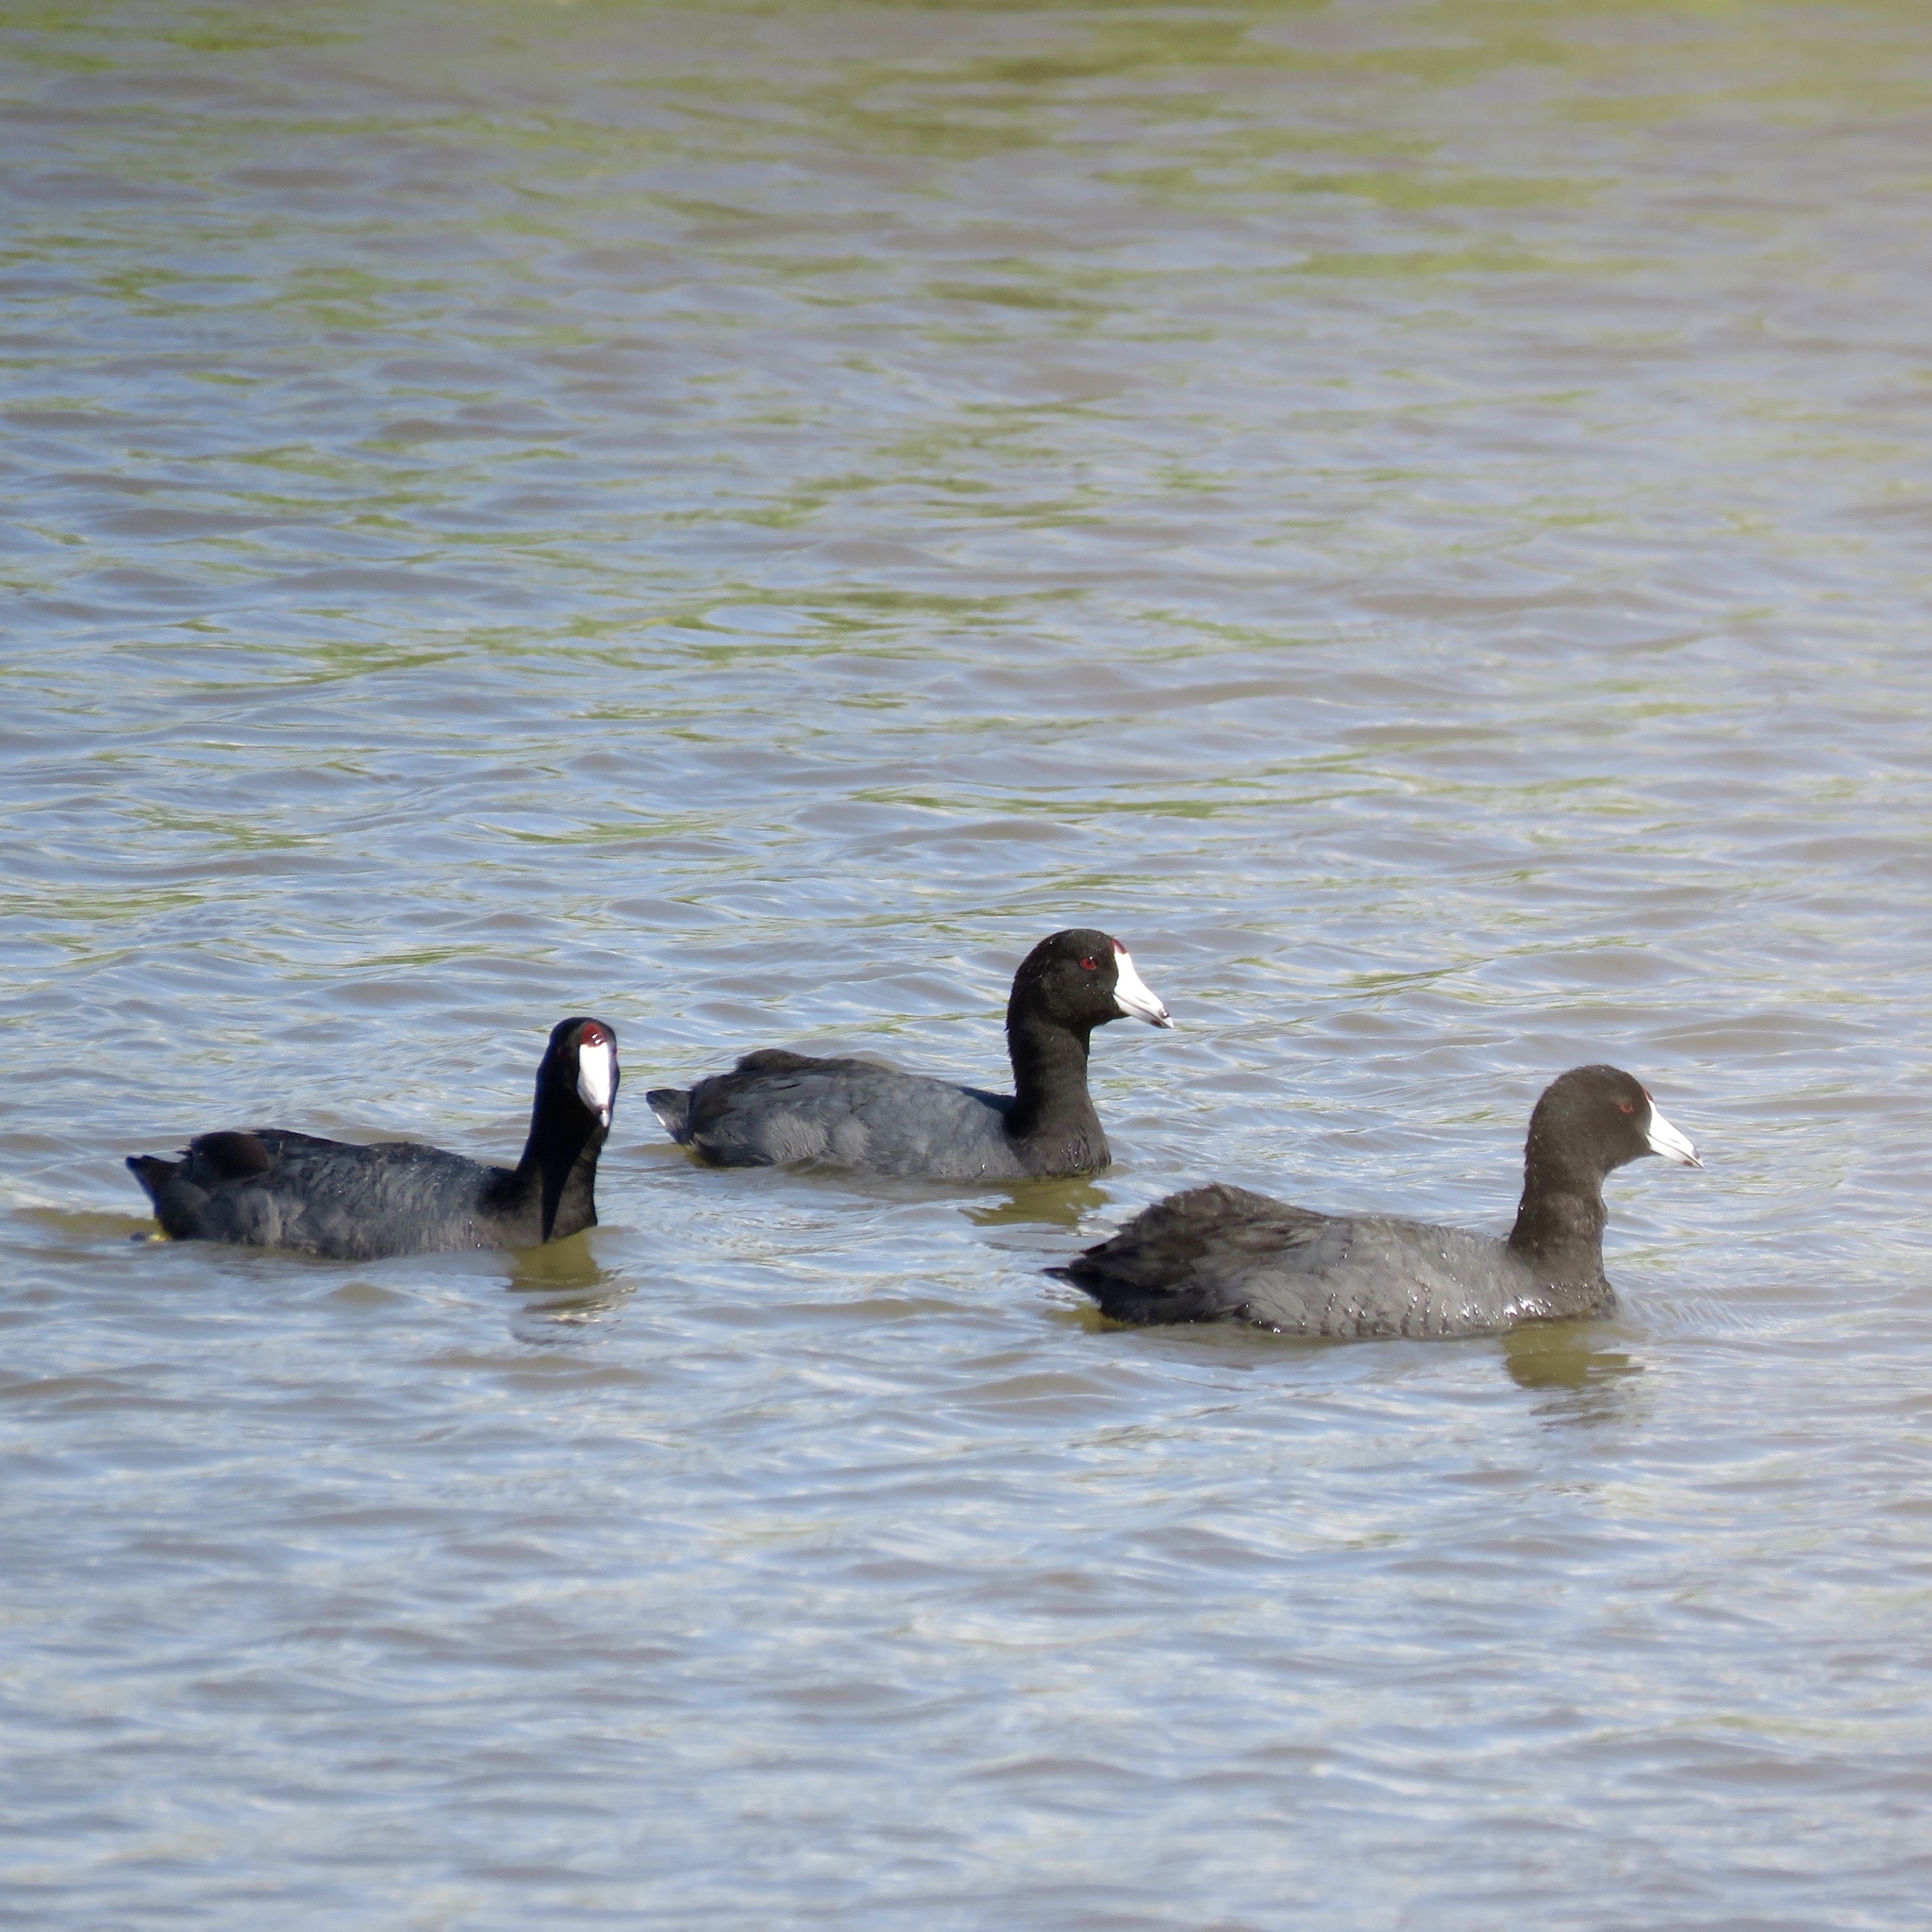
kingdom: Animalia
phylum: Chordata
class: Aves
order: Gruiformes
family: Rallidae
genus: Fulica
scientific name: Fulica americana
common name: American coot
